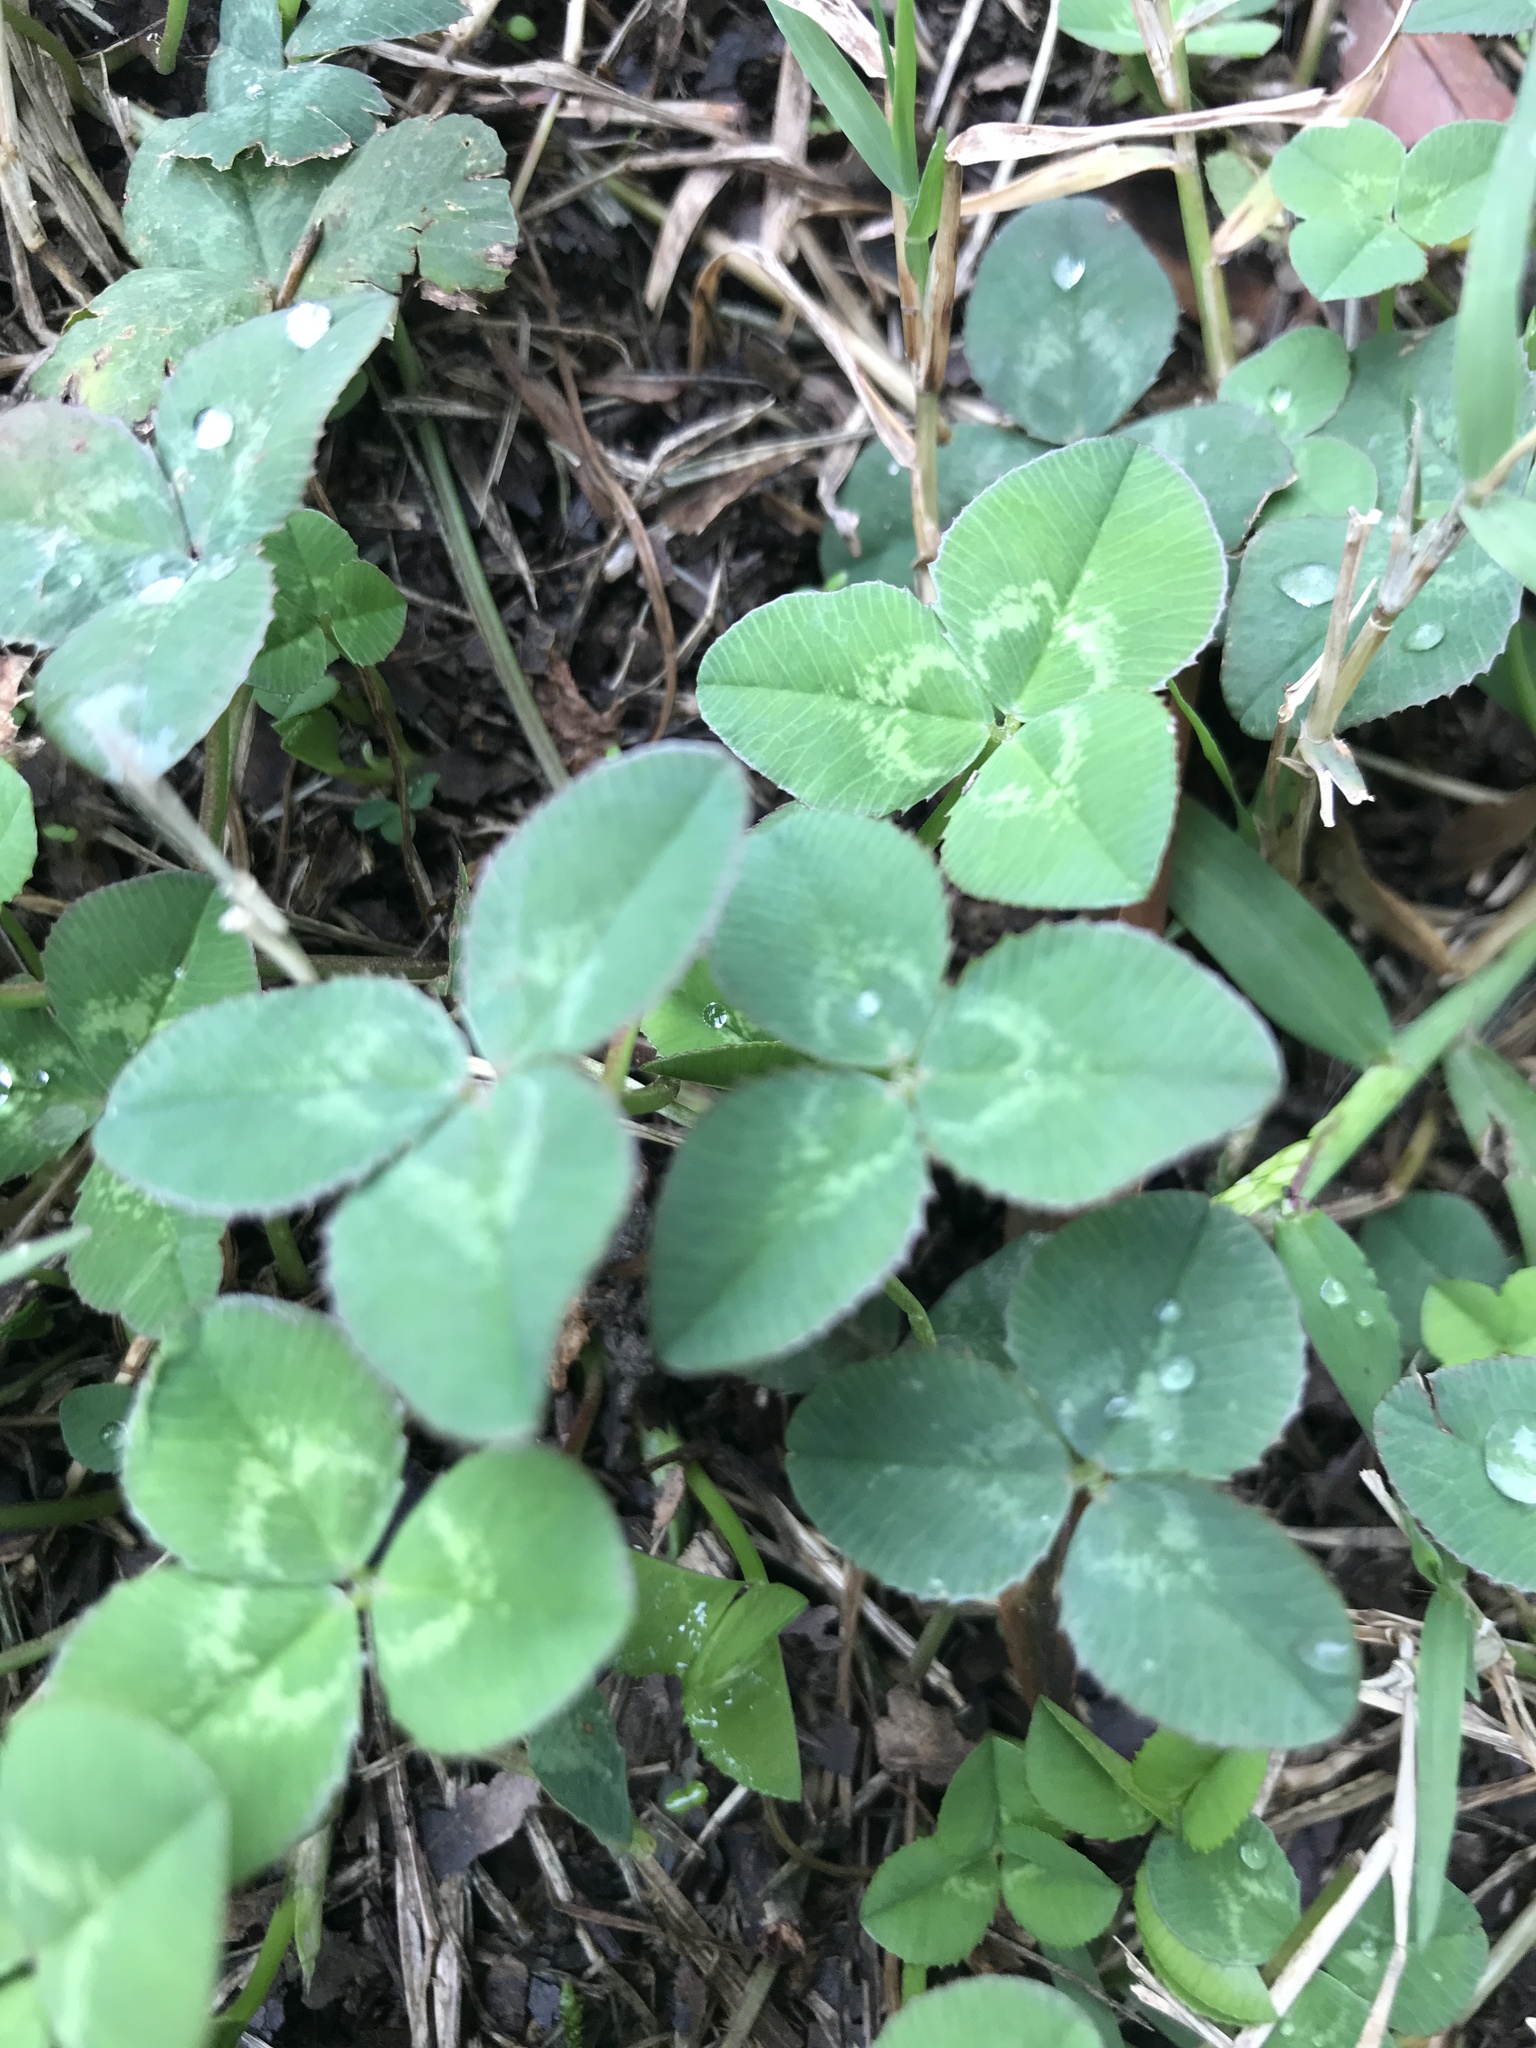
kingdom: Plantae
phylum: Tracheophyta
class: Magnoliopsida
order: Fabales
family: Fabaceae
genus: Trifolium
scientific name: Trifolium repens
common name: White clover
